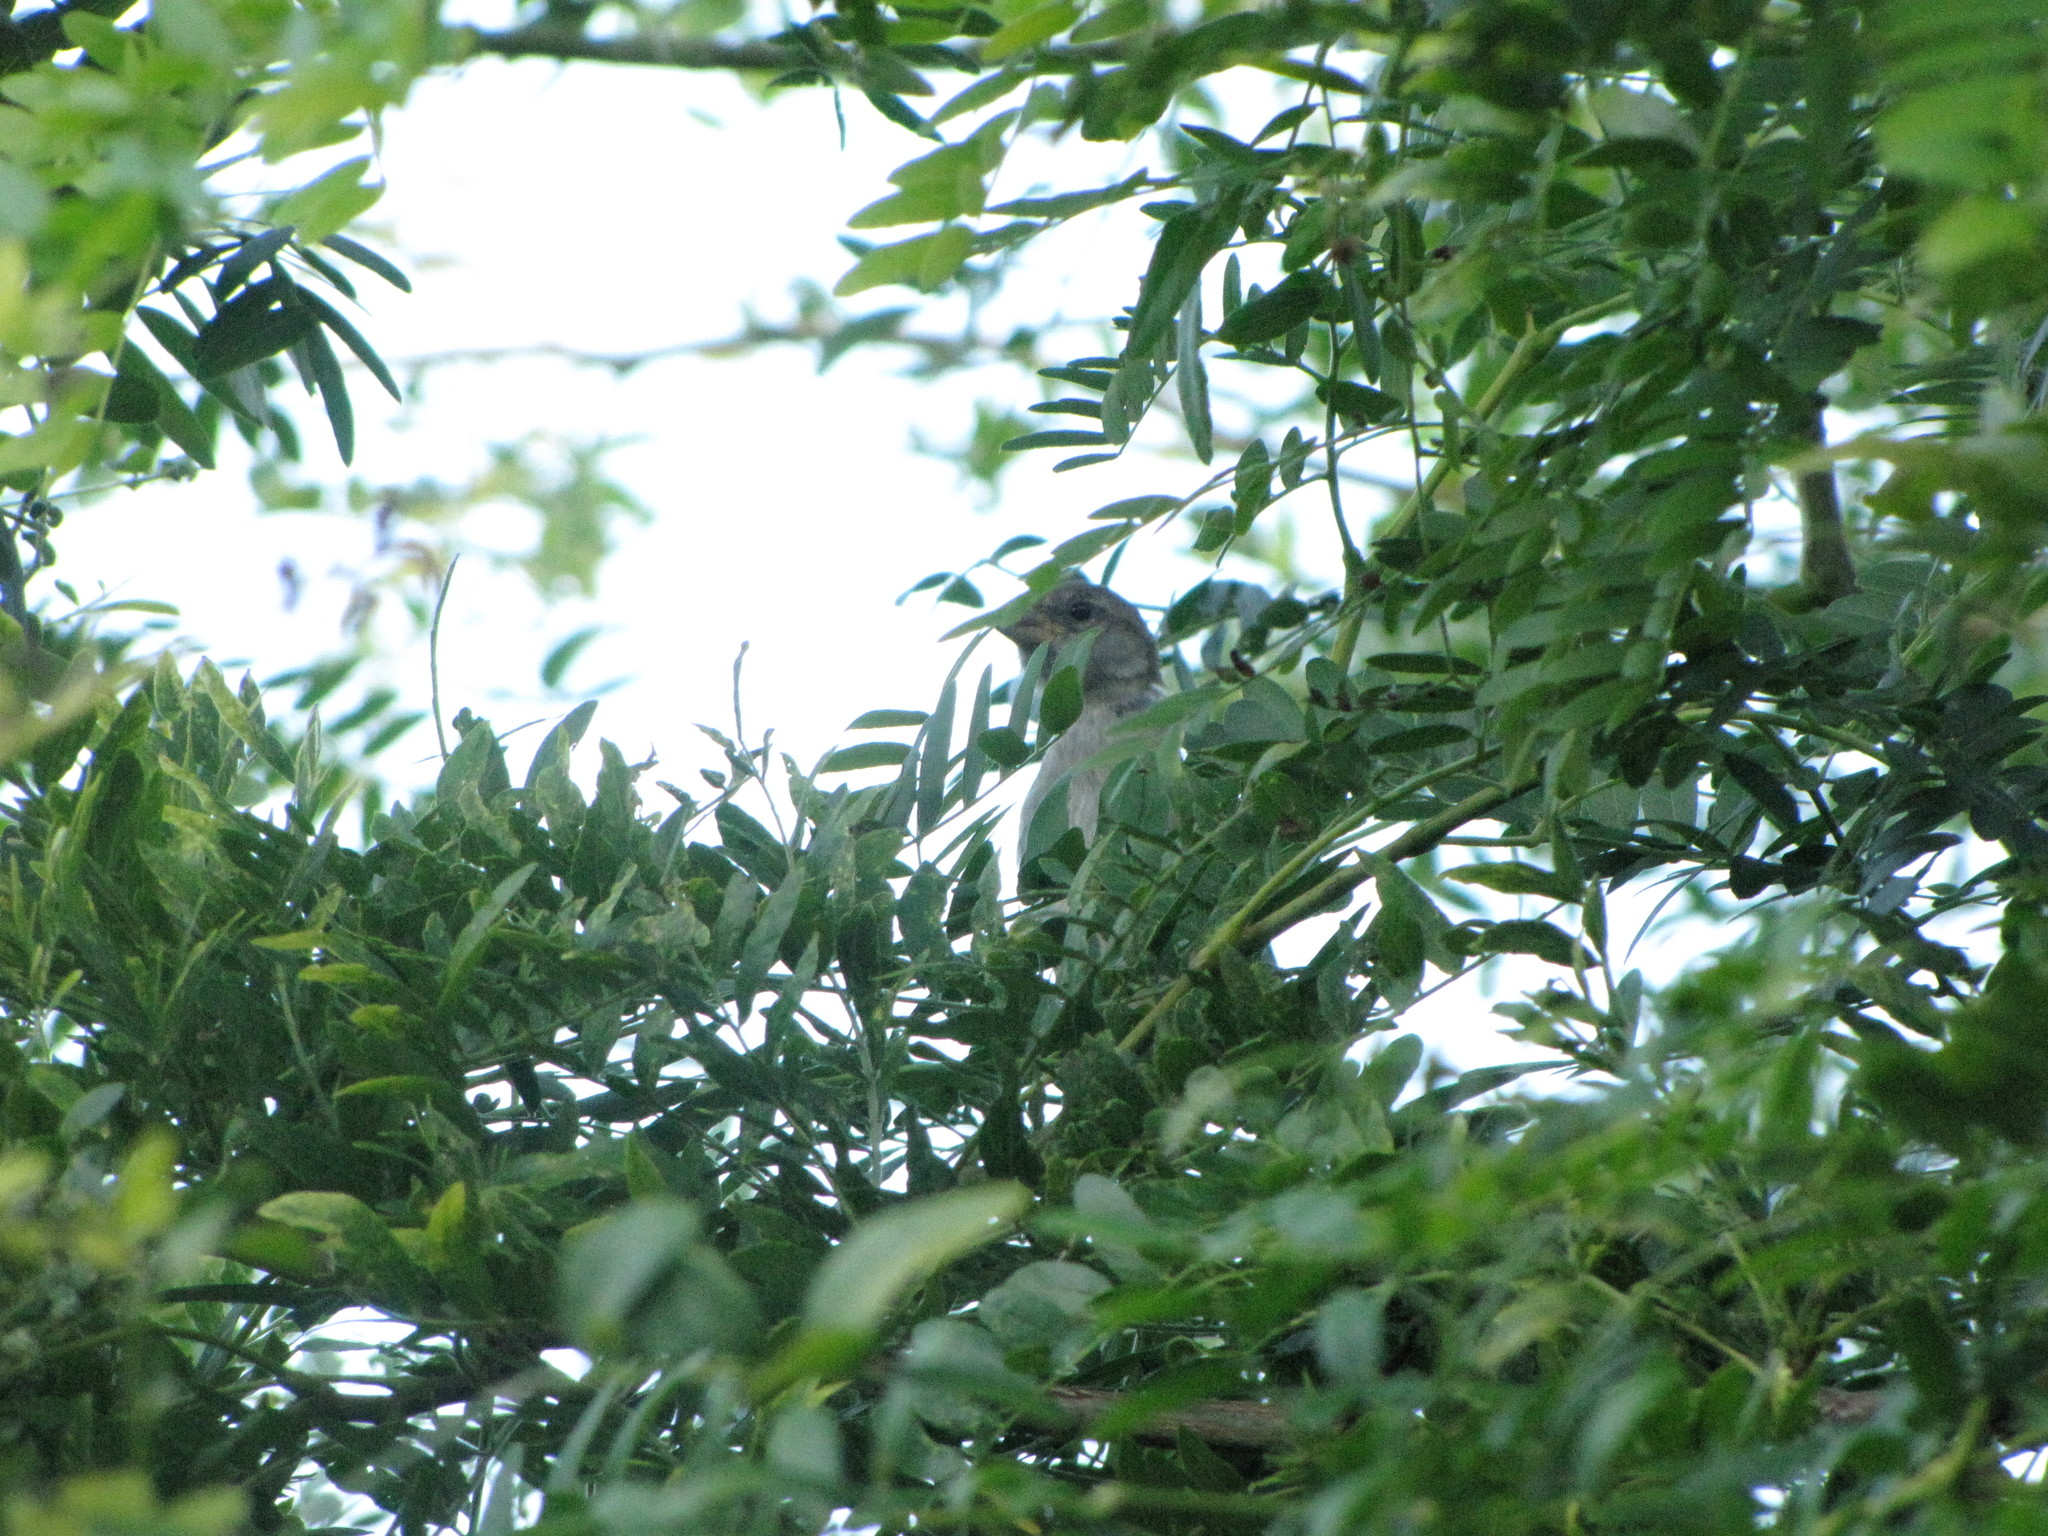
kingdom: Animalia
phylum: Chordata
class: Aves
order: Passeriformes
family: Passeridae
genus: Passer
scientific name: Passer domesticus
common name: House sparrow
